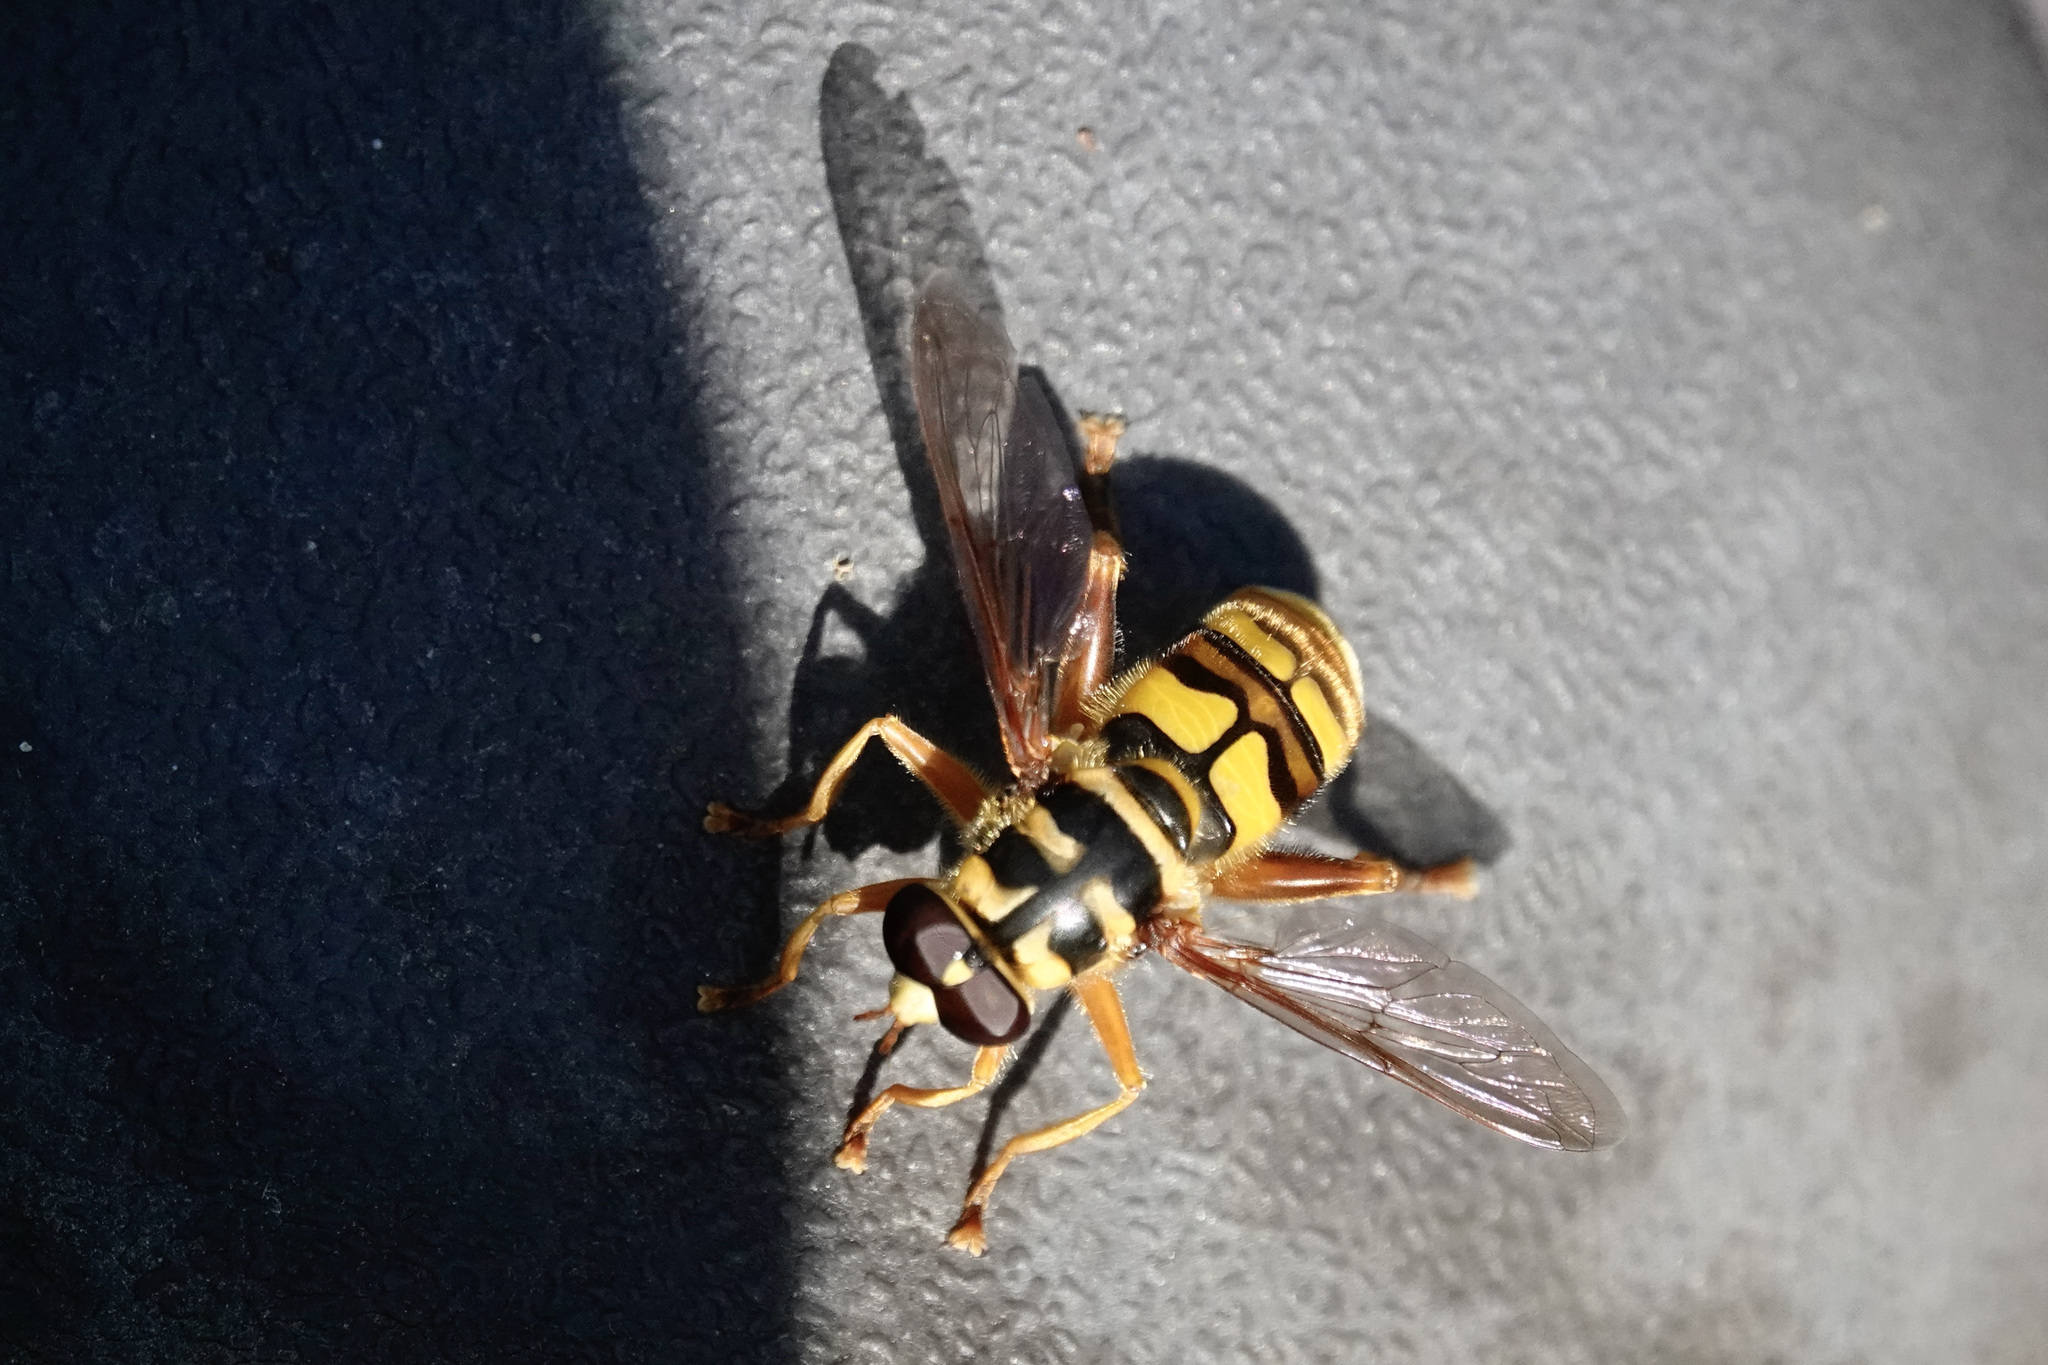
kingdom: Animalia
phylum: Arthropoda
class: Insecta
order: Diptera
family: Syrphidae
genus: Milesia
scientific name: Milesia virginiensis
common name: Virginia giant
